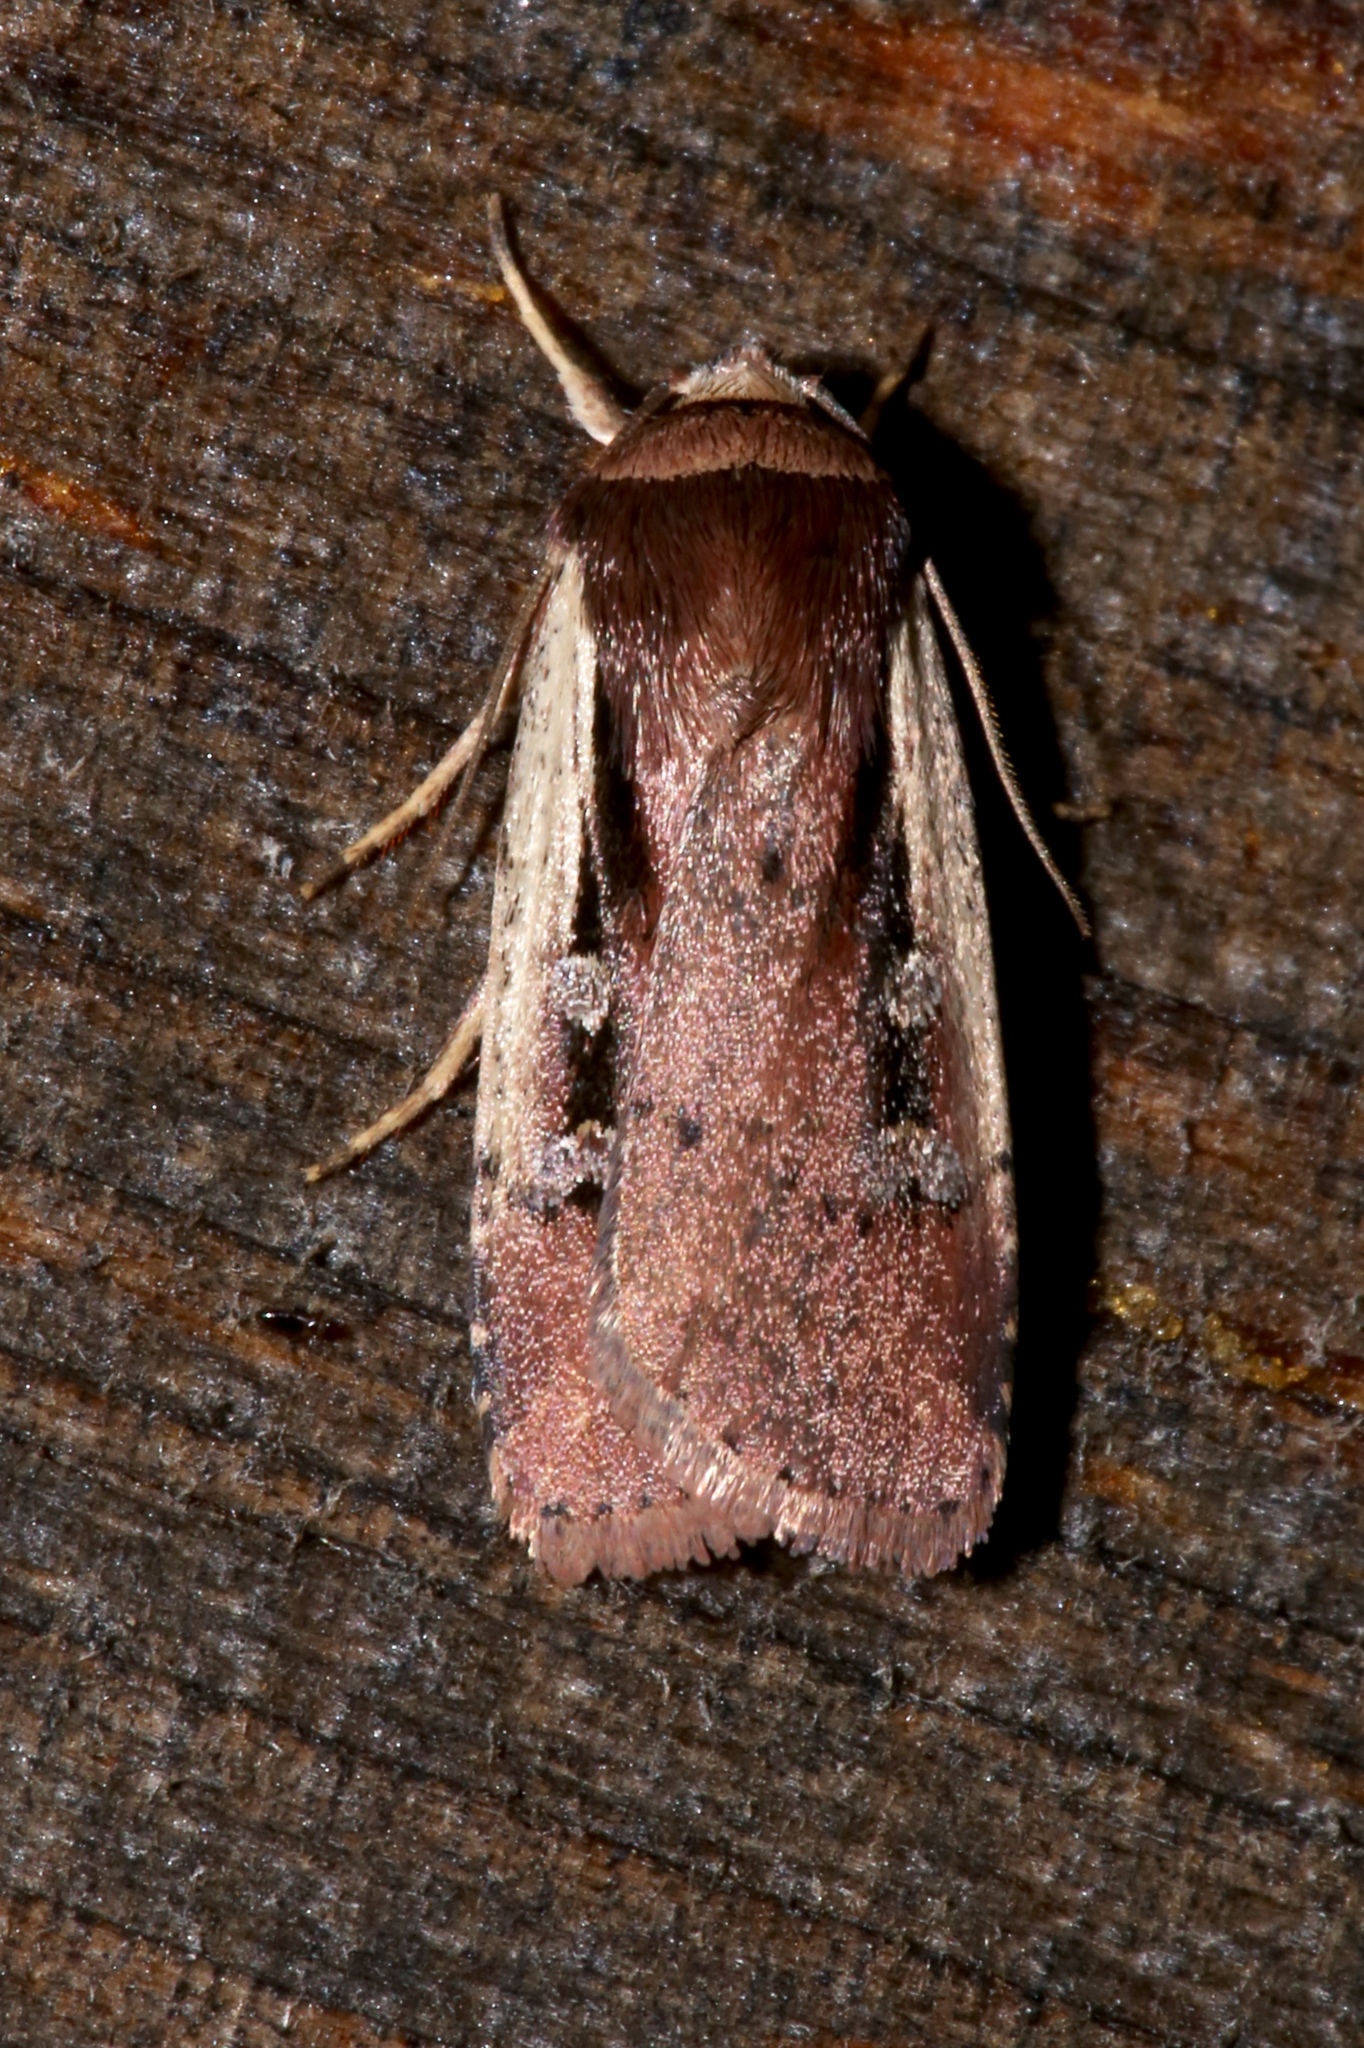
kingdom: Animalia
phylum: Arthropoda
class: Insecta
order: Lepidoptera
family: Noctuidae
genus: Ochropleura
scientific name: Ochropleura implecta
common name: Flame-shouldered dart
